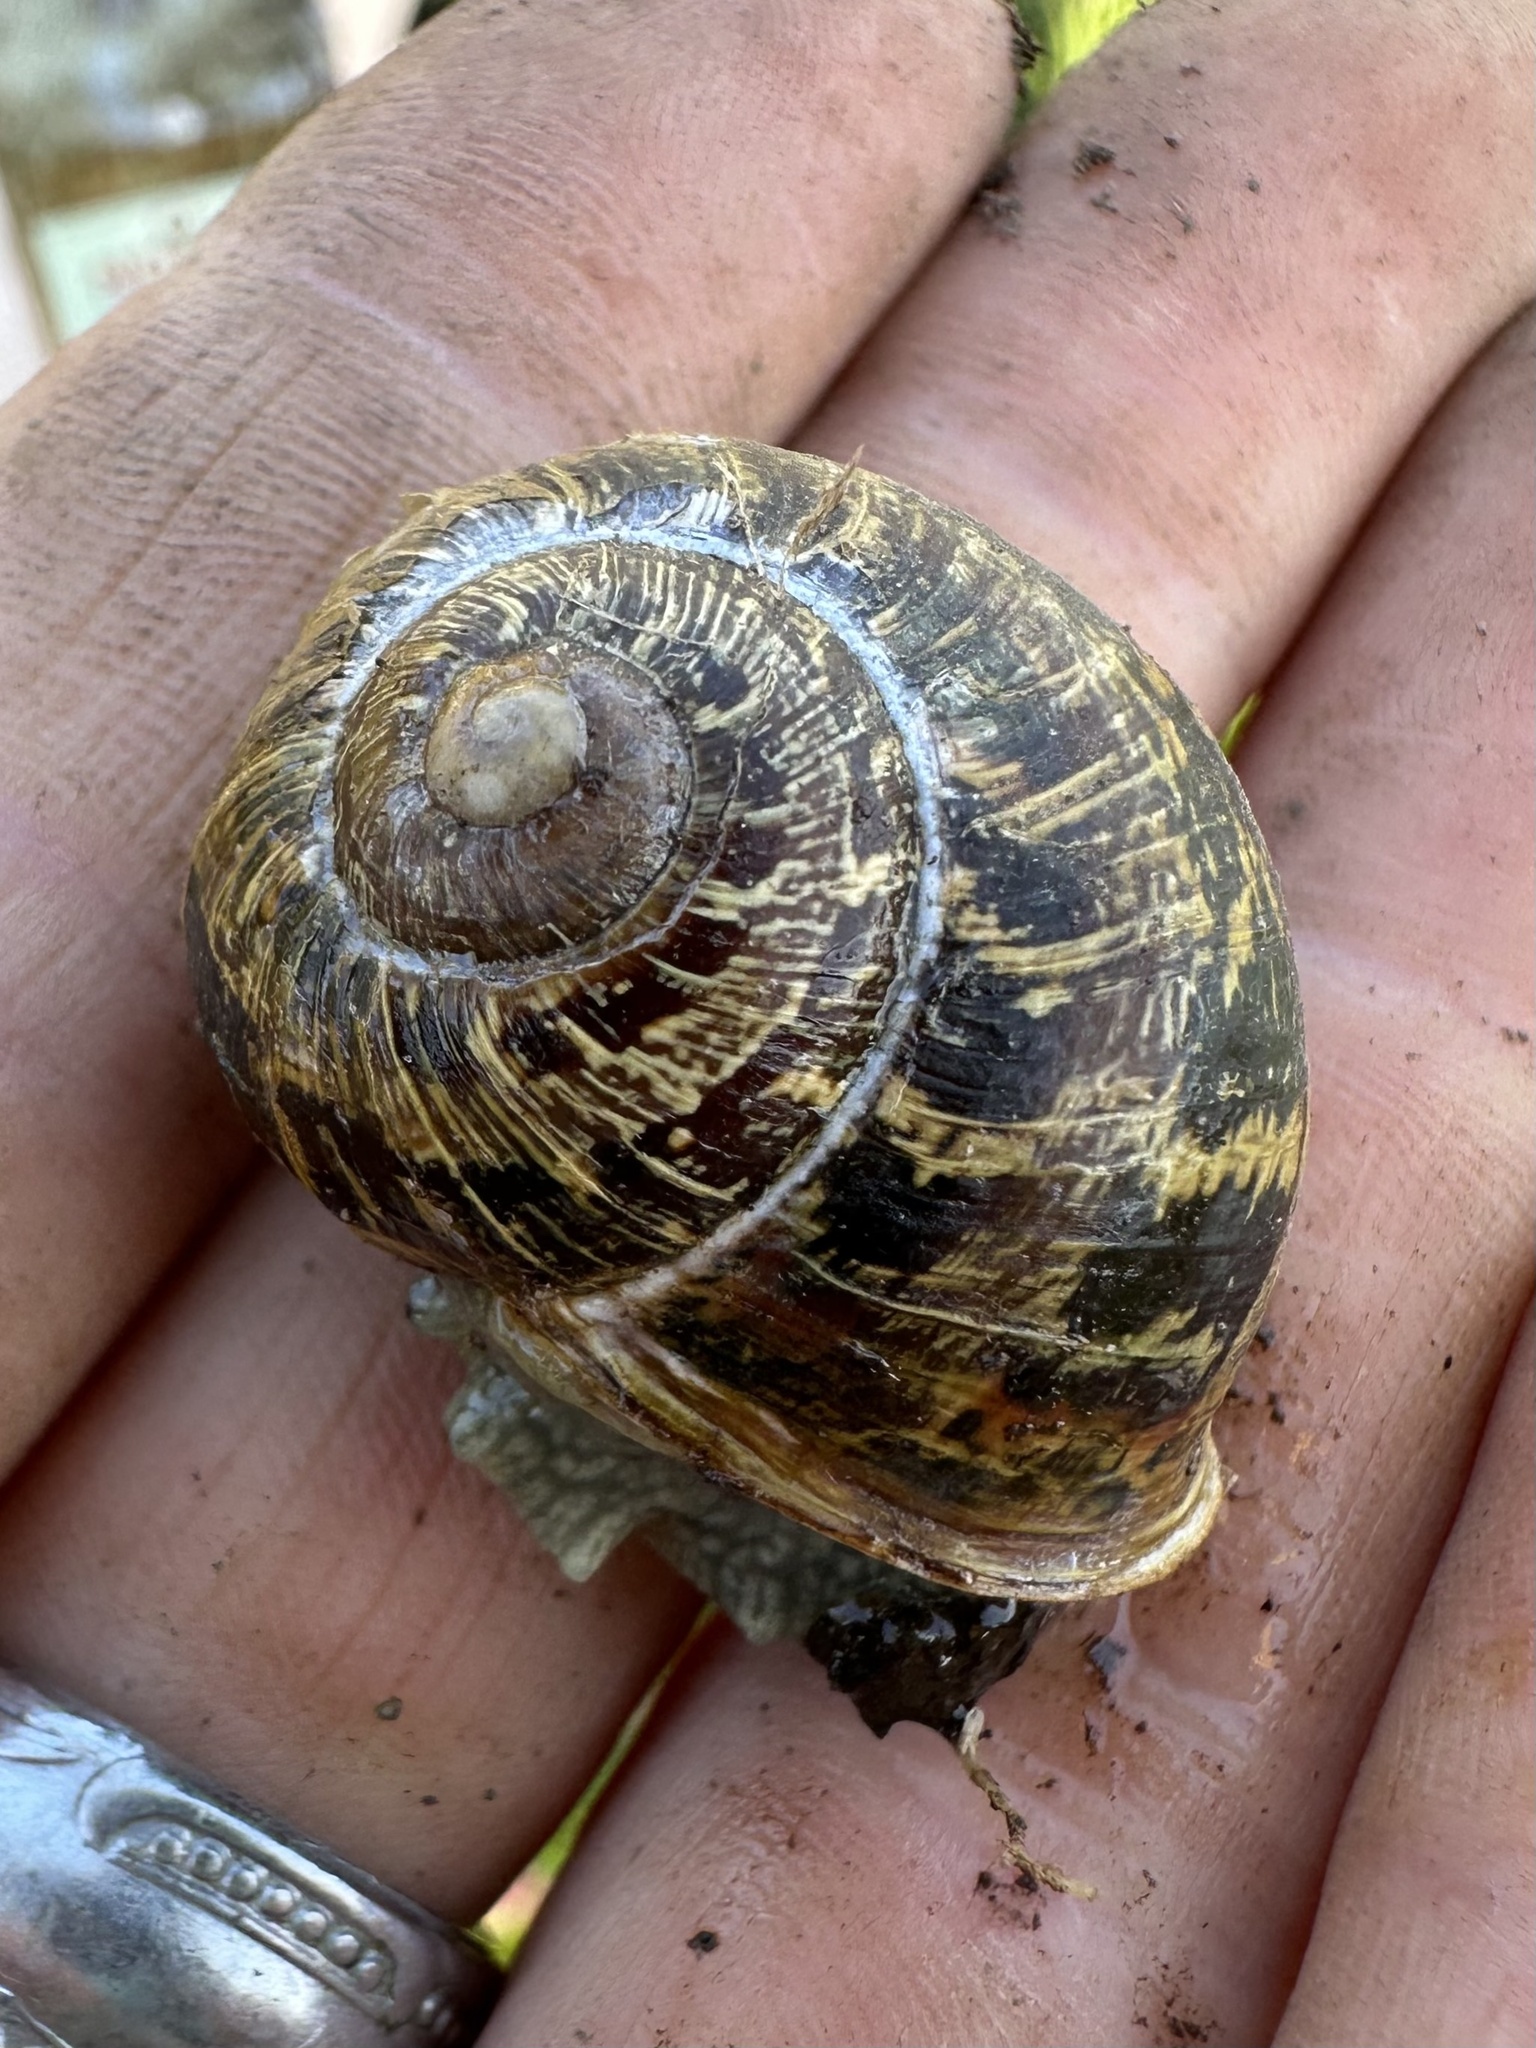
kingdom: Animalia
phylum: Mollusca
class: Gastropoda
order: Stylommatophora
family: Helicidae
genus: Cornu
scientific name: Cornu aspersum
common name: Brown garden snail
